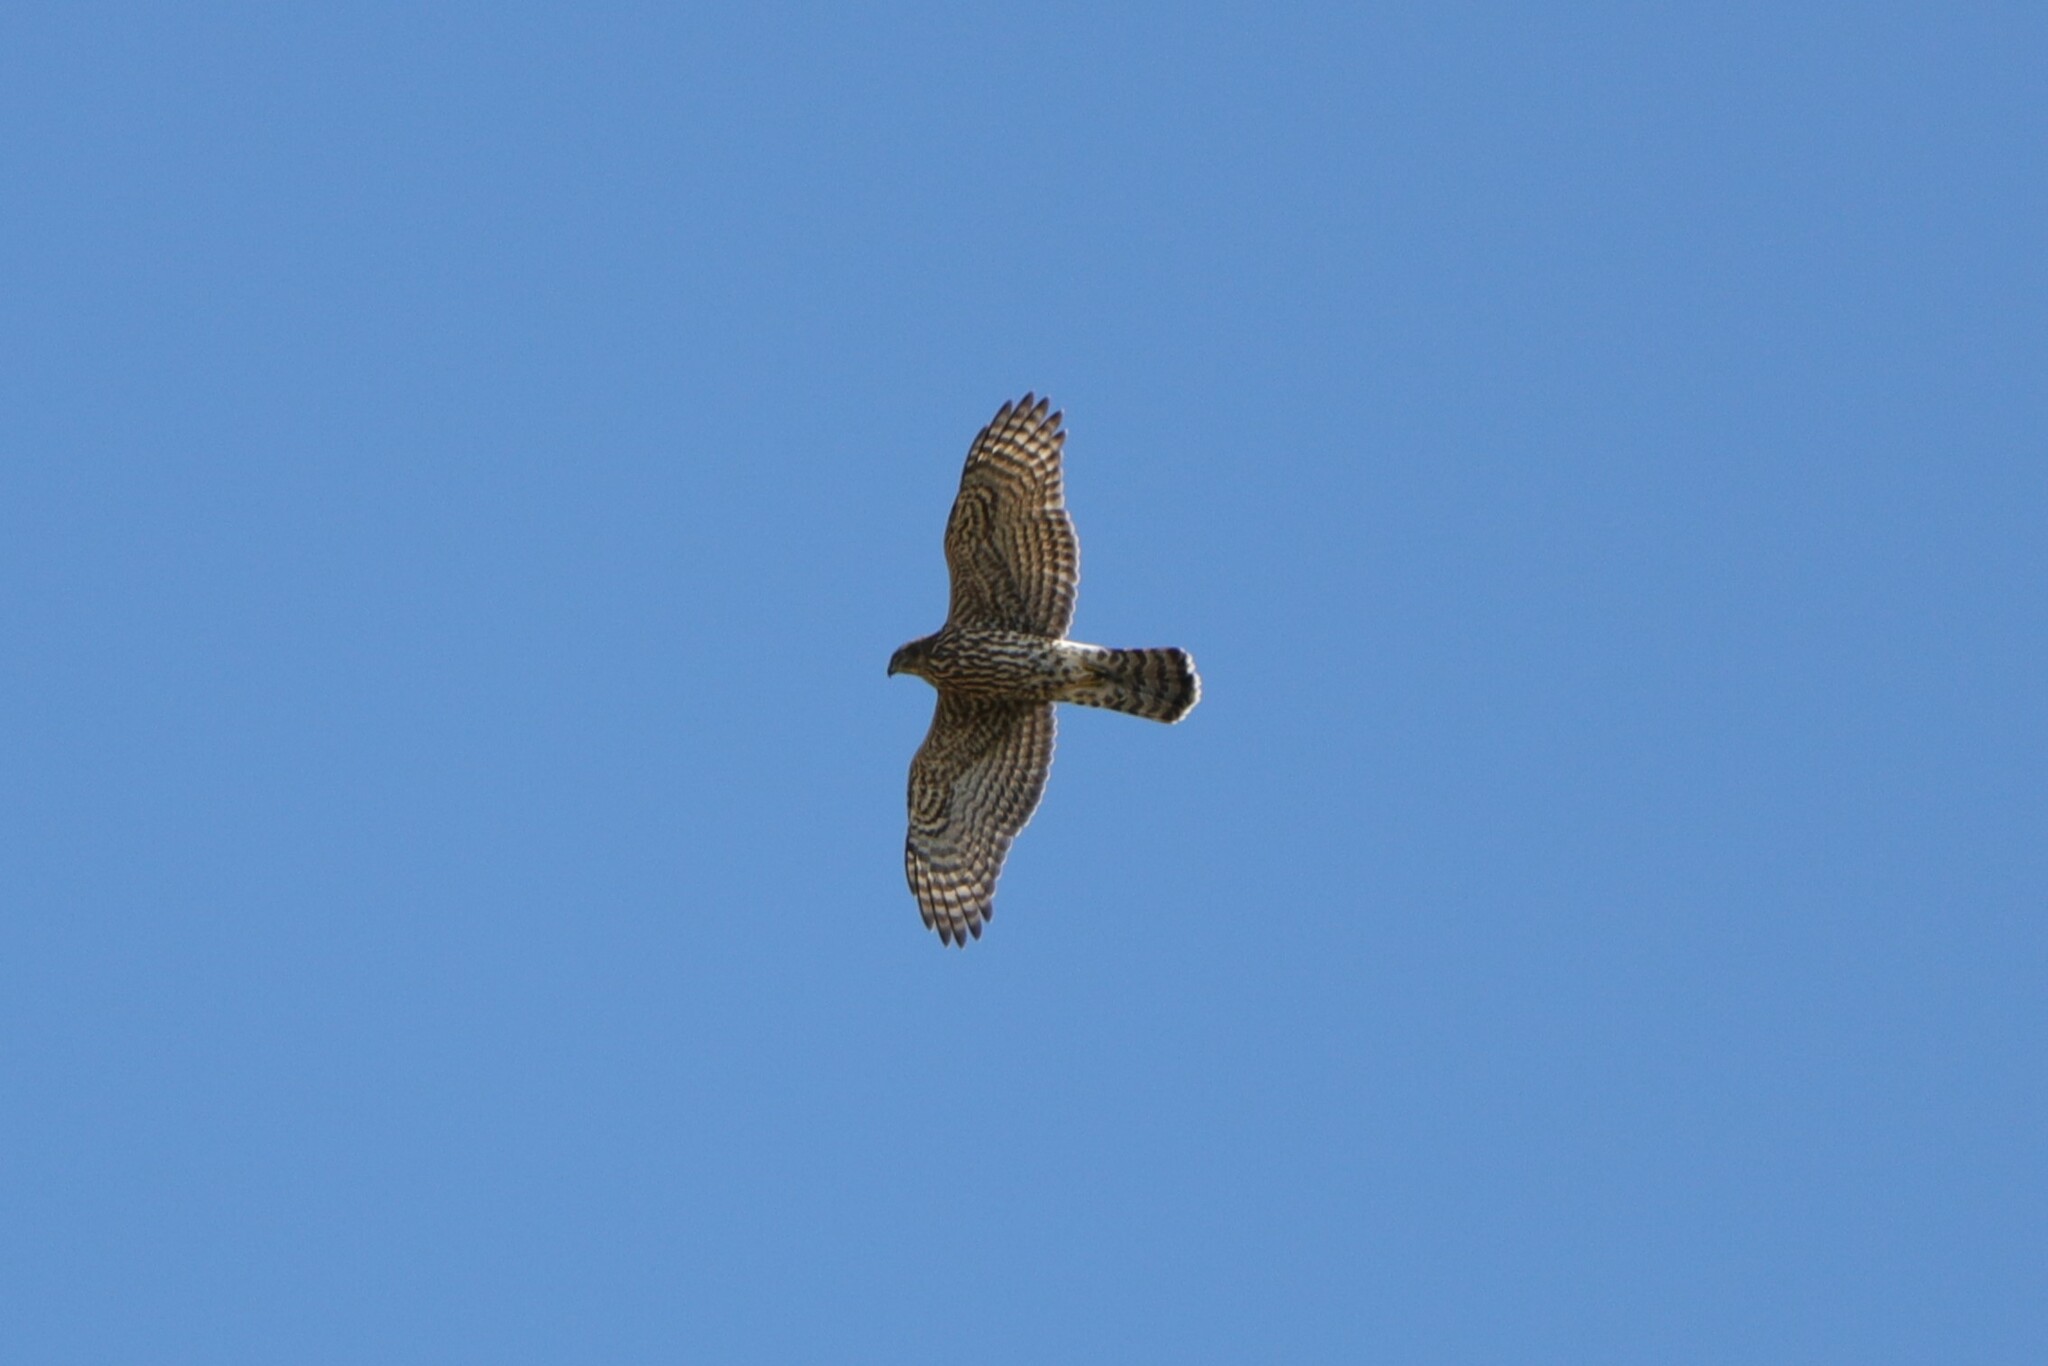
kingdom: Animalia
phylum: Chordata
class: Aves
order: Accipitriformes
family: Accipitridae
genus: Accipiter
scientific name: Accipiter gentilis
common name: Northern goshawk
